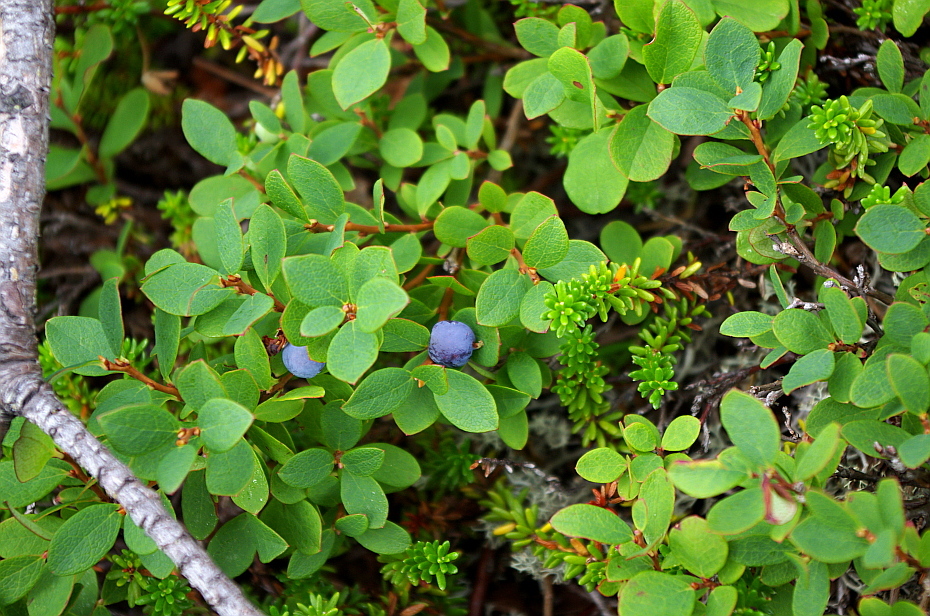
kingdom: Plantae
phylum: Tracheophyta
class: Magnoliopsida
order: Ericales
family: Ericaceae
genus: Vaccinium
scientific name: Vaccinium uliginosum
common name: Bog bilberry
